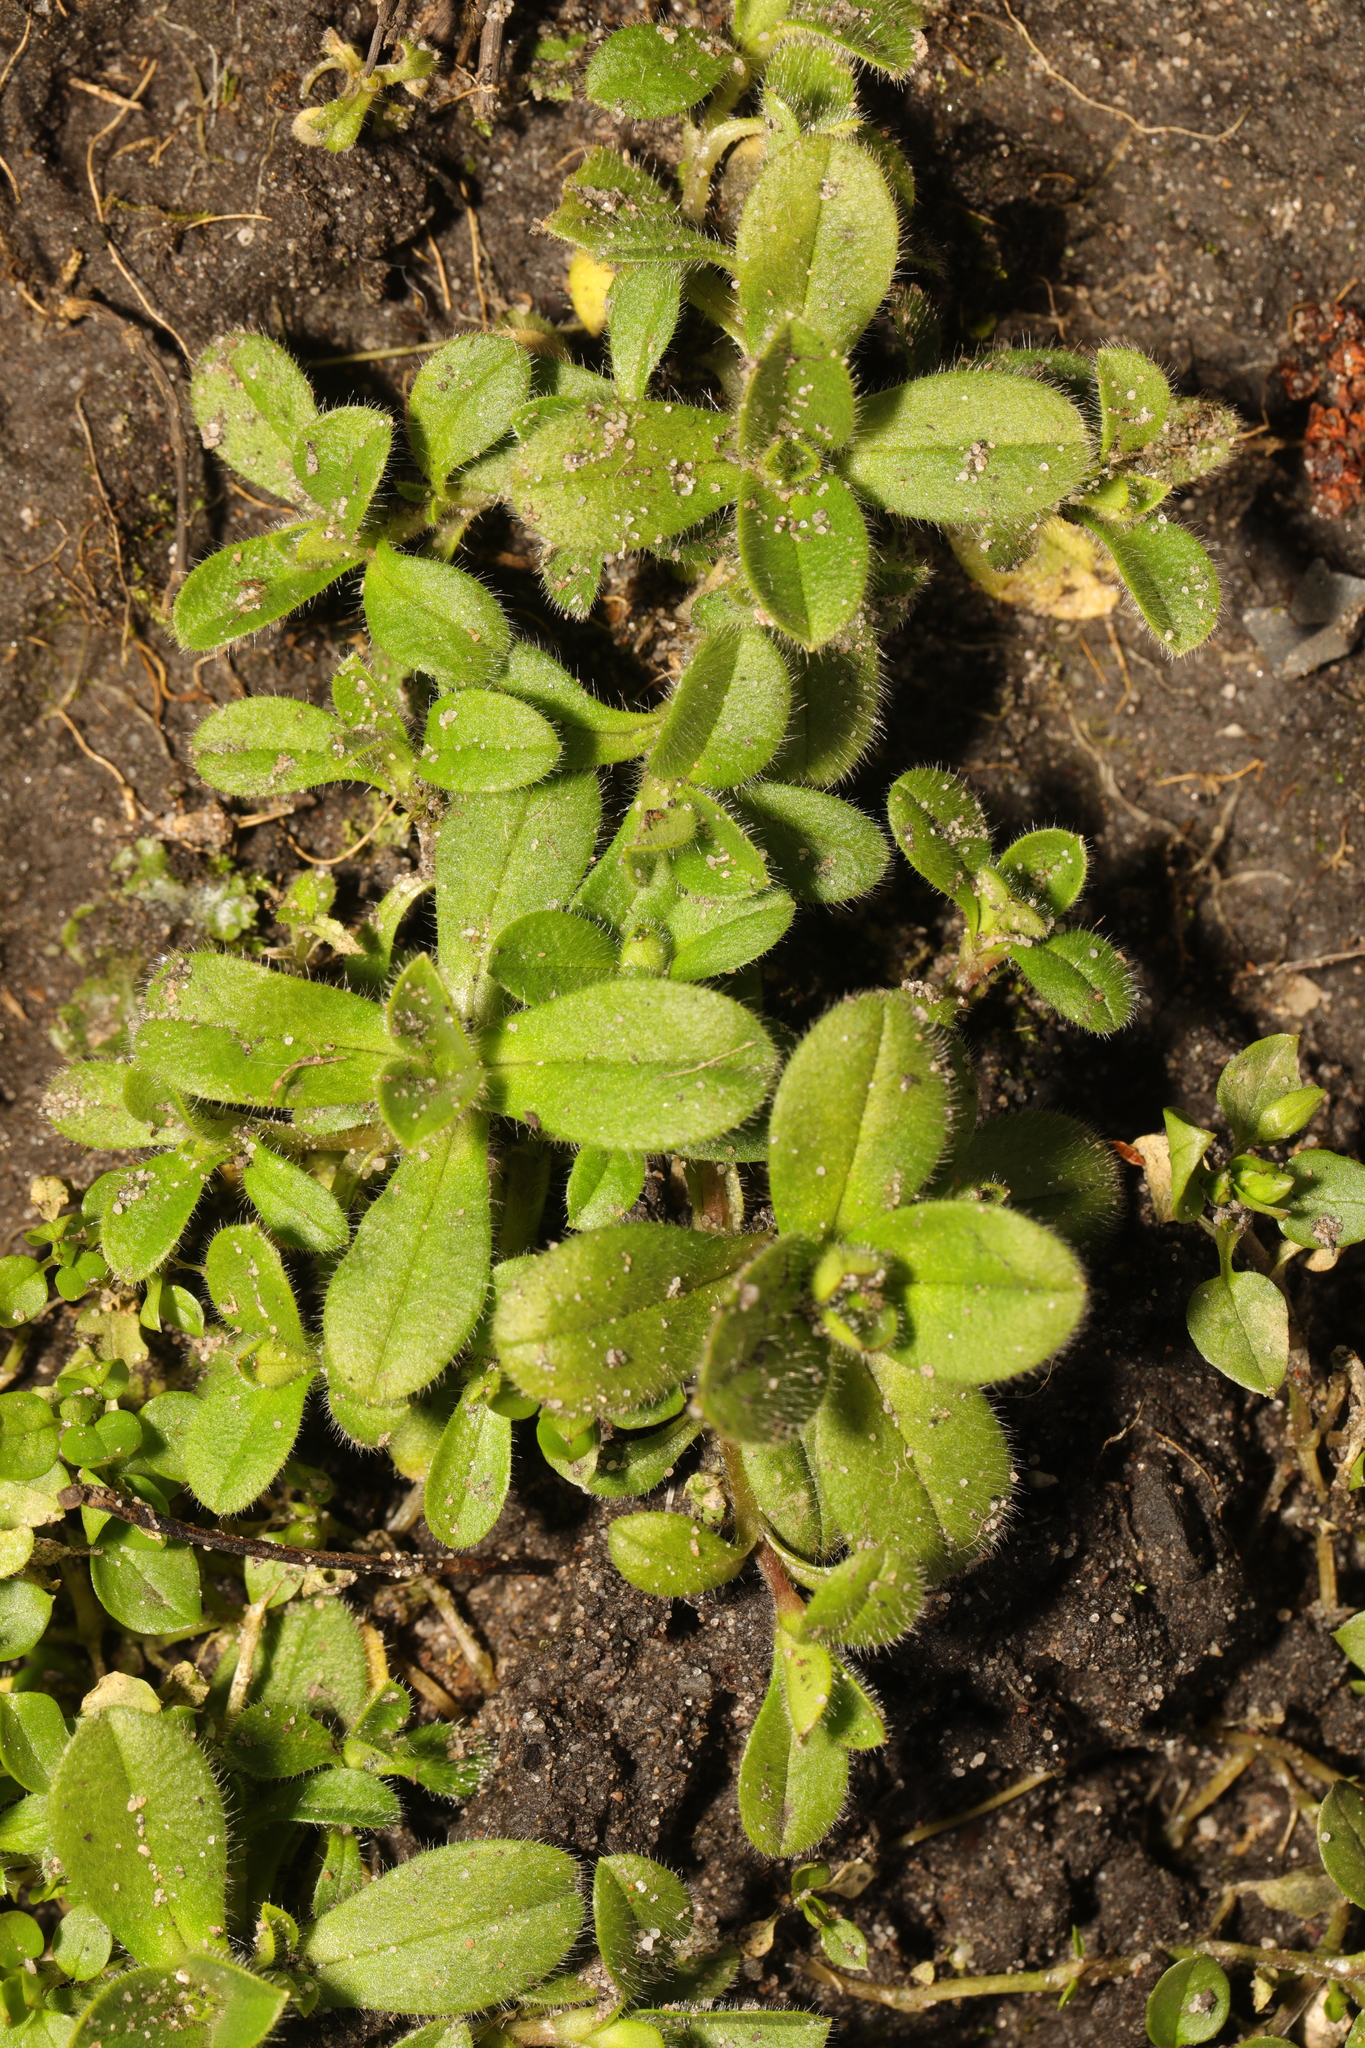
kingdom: Plantae
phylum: Tracheophyta
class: Magnoliopsida
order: Caryophyllales
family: Caryophyllaceae
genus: Cerastium
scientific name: Cerastium glomeratum
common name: Sticky chickweed
